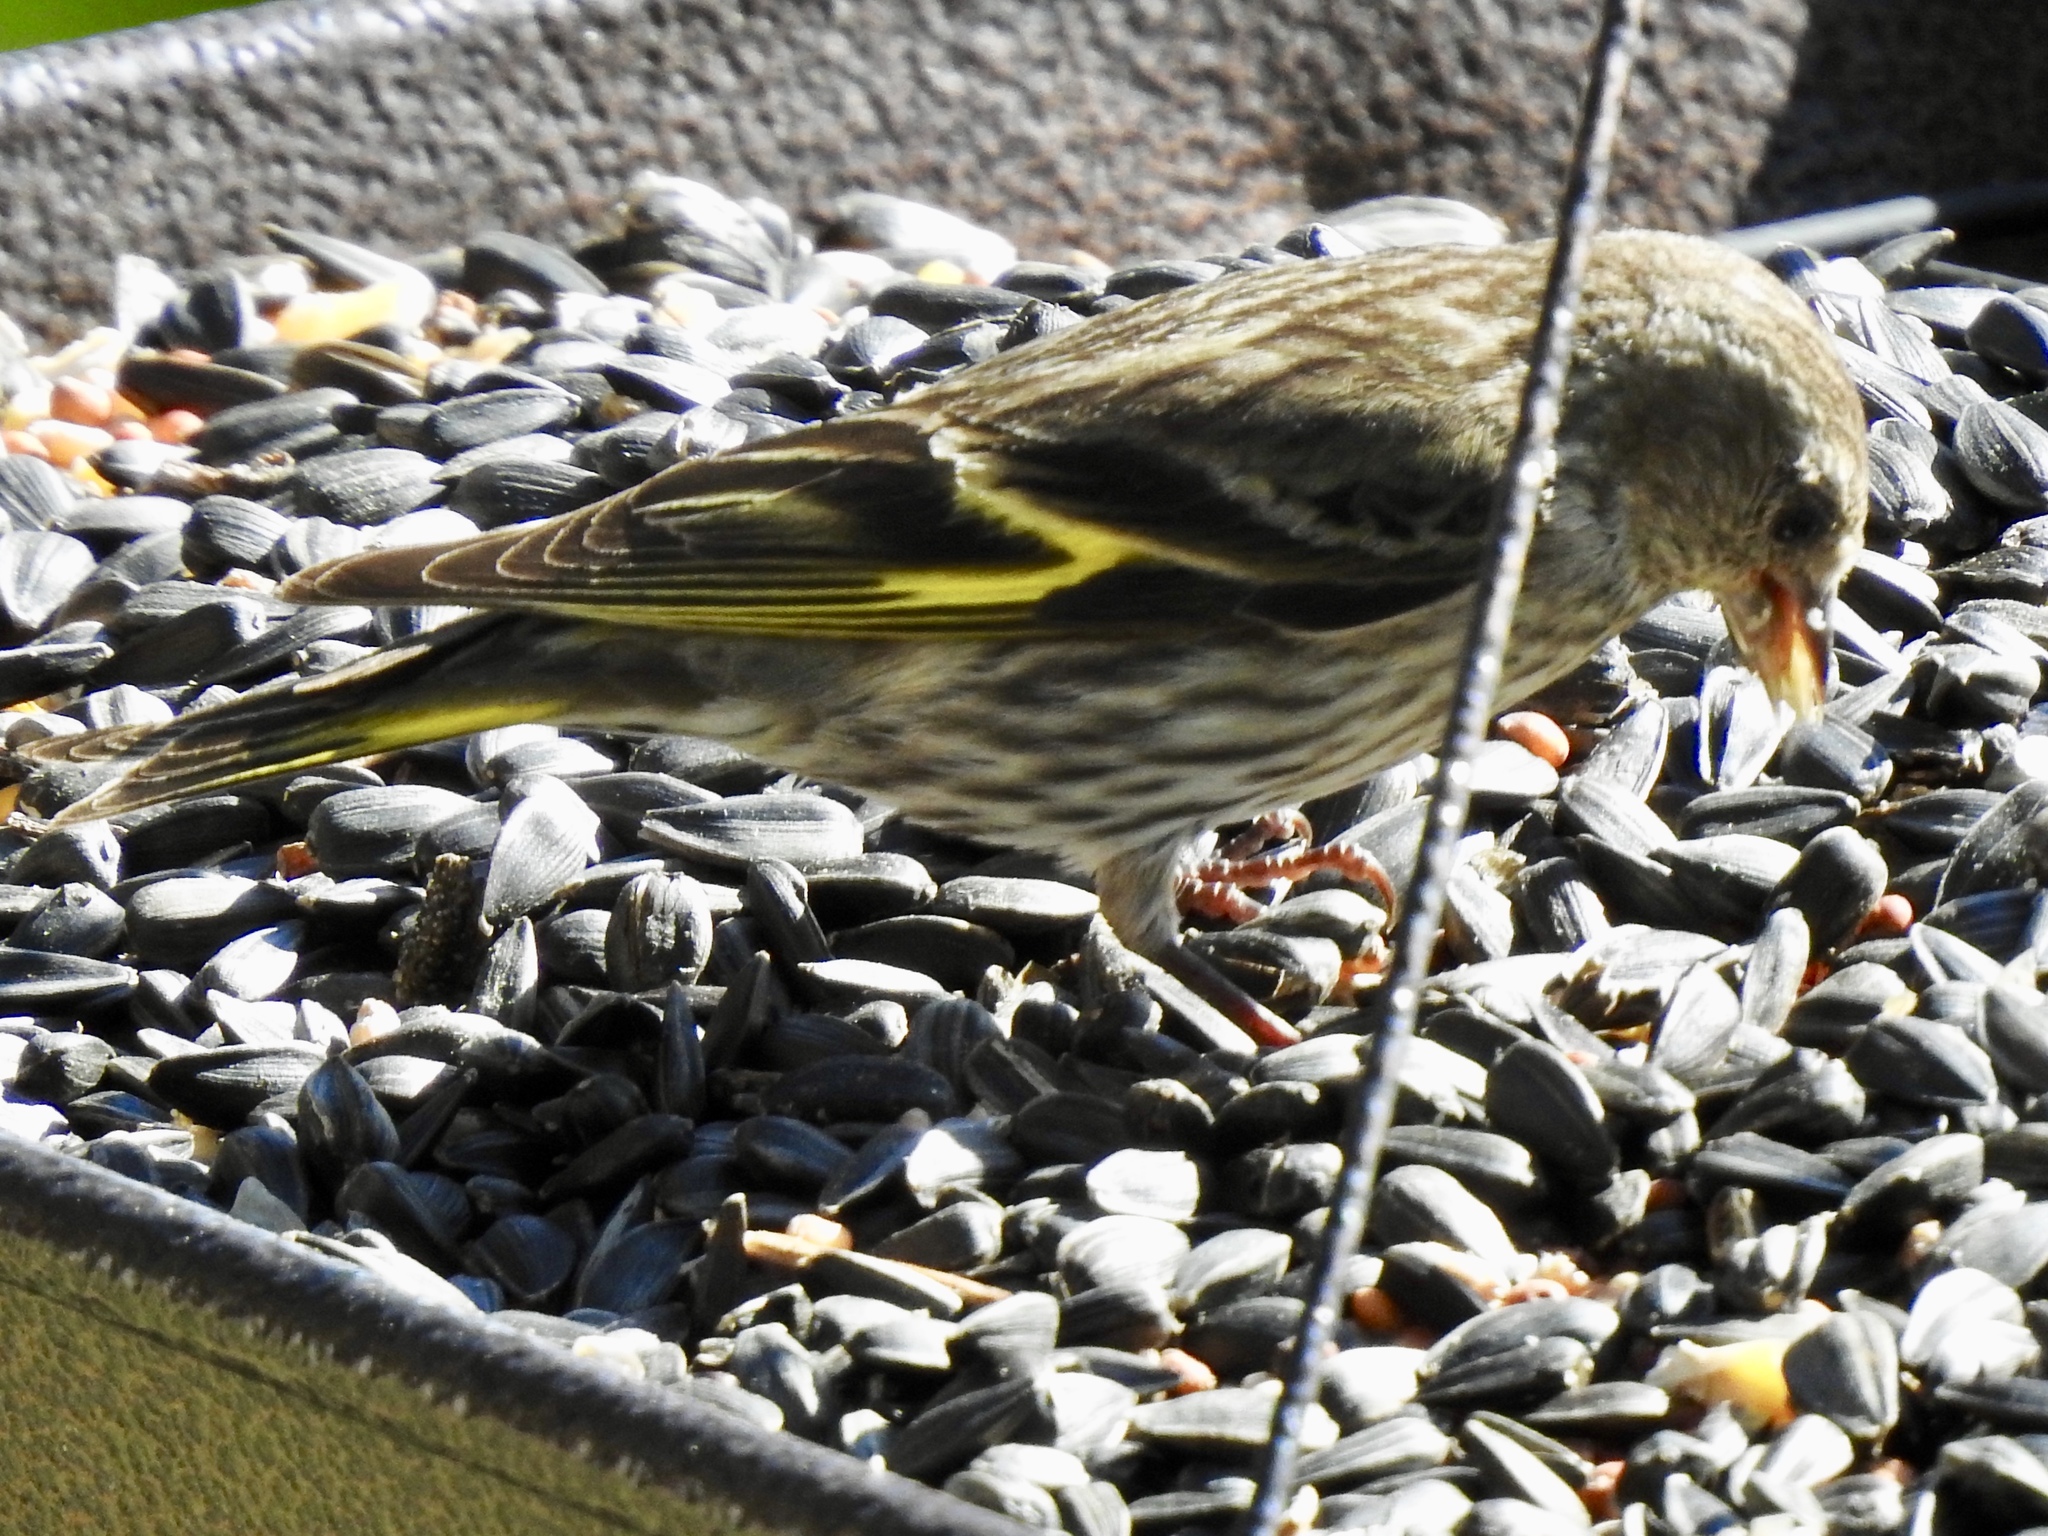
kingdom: Animalia
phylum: Chordata
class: Aves
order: Passeriformes
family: Fringillidae
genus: Spinus
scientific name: Spinus pinus
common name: Pine siskin
